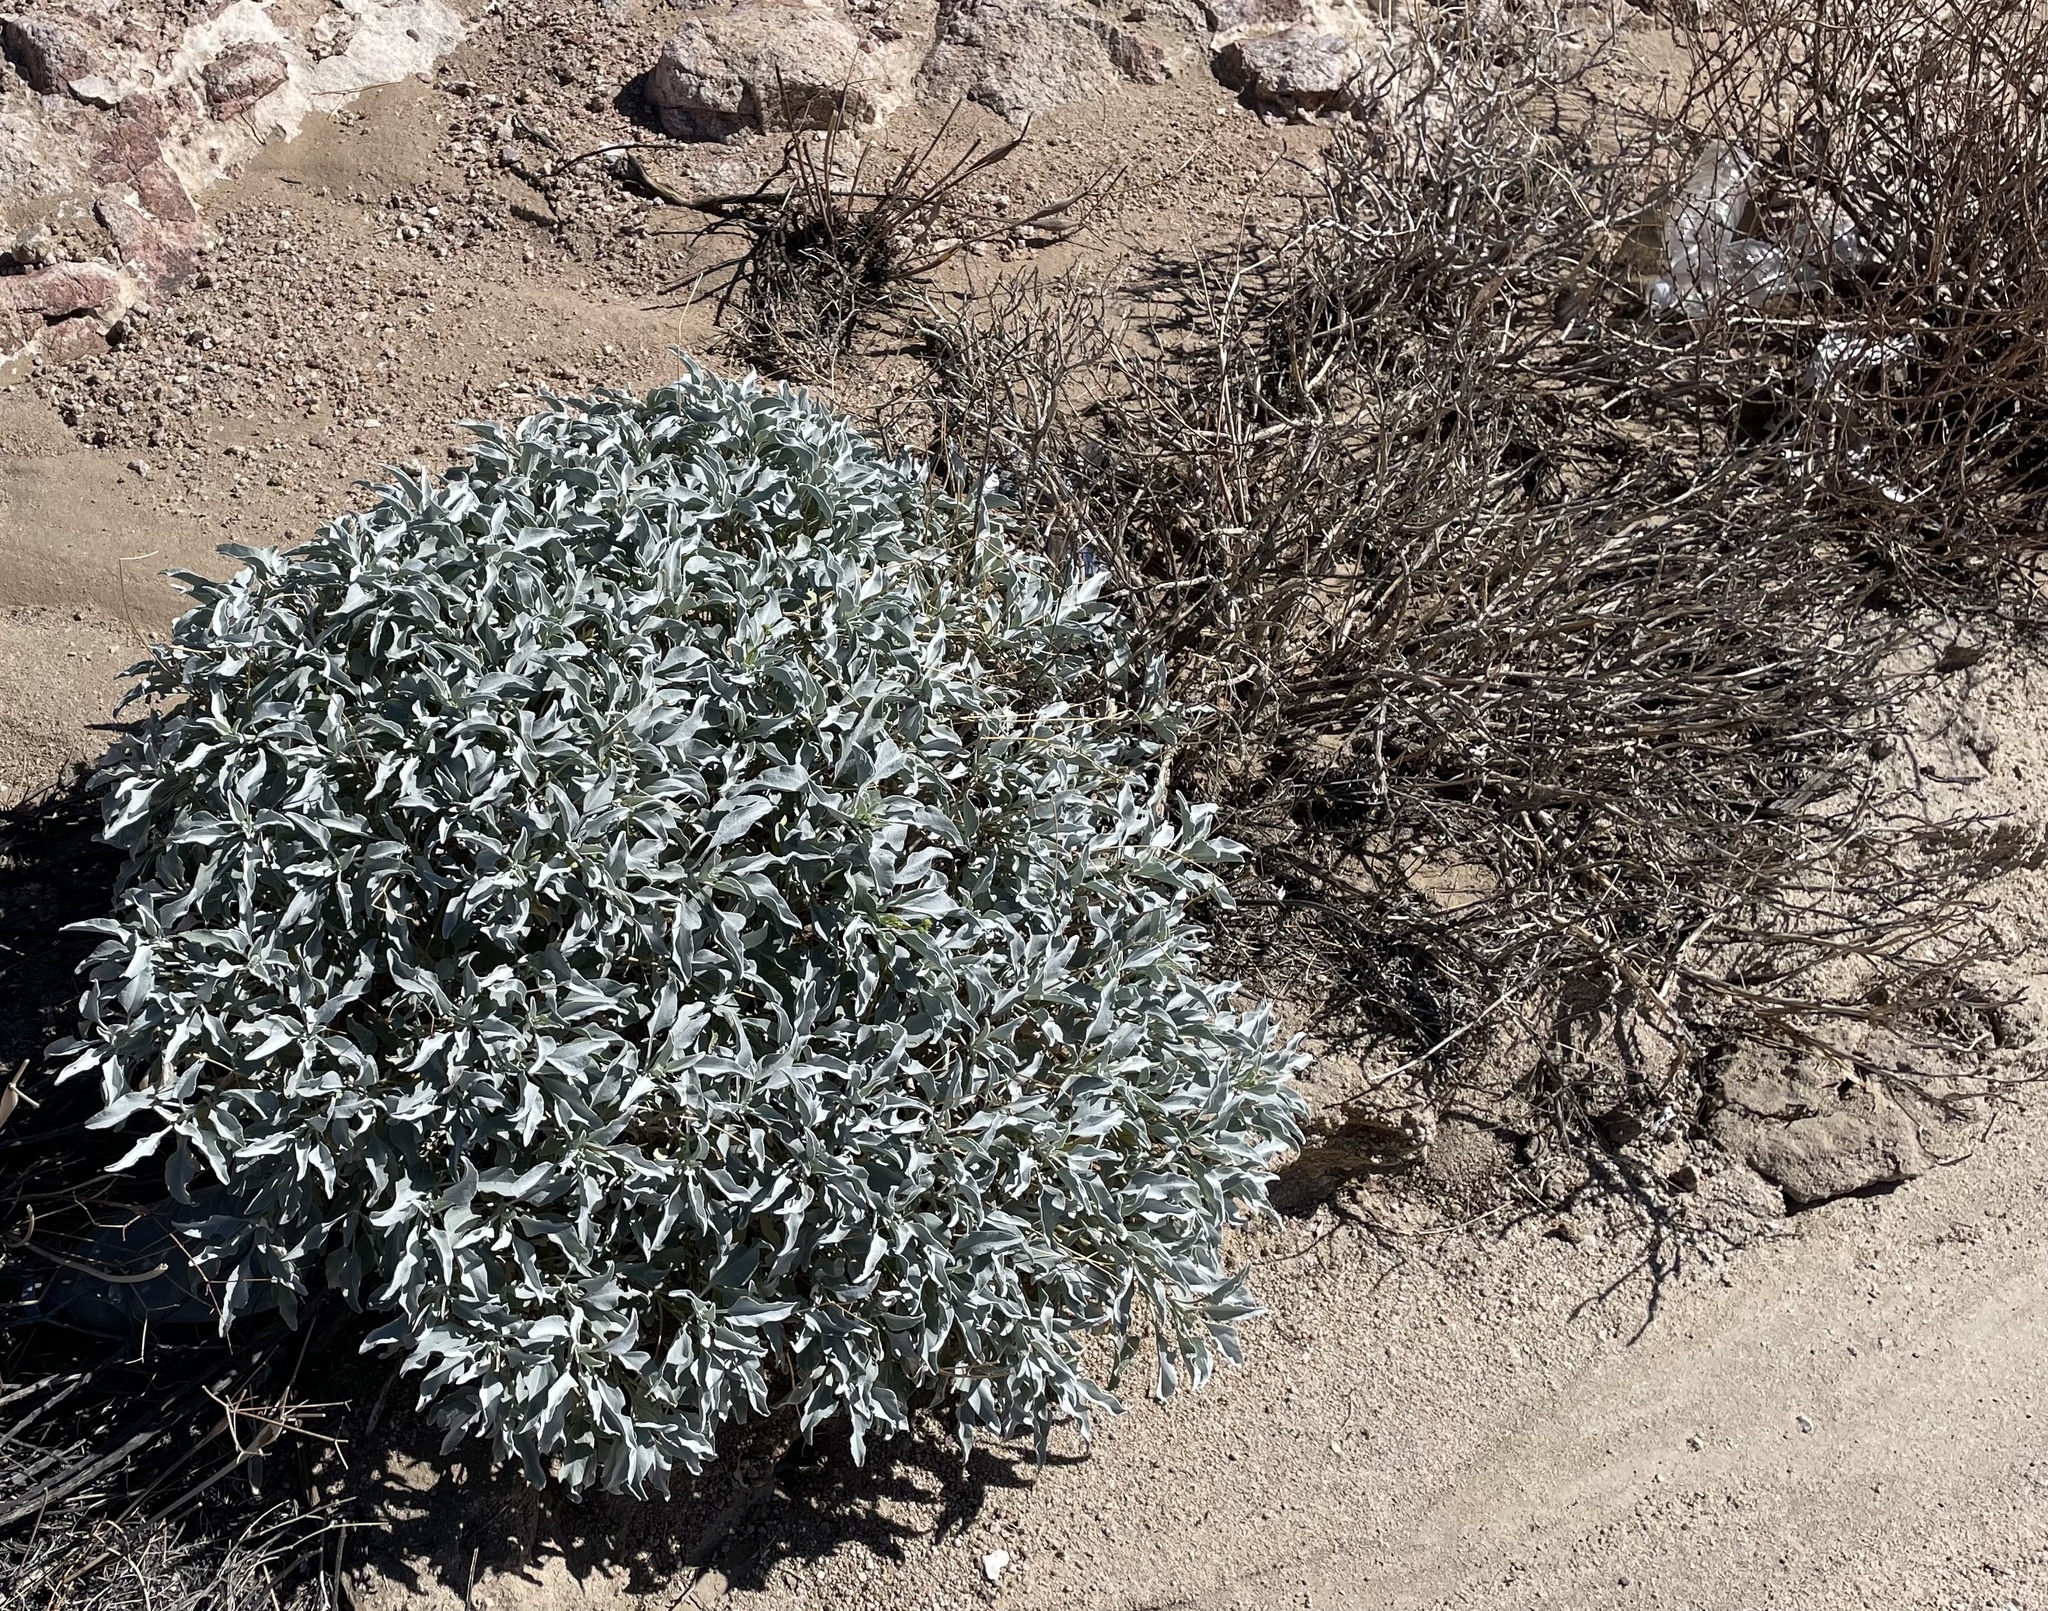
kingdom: Plantae
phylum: Tracheophyta
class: Magnoliopsida
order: Asterales
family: Asteraceae
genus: Encelia
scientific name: Encelia farinosa
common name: Brittlebush
